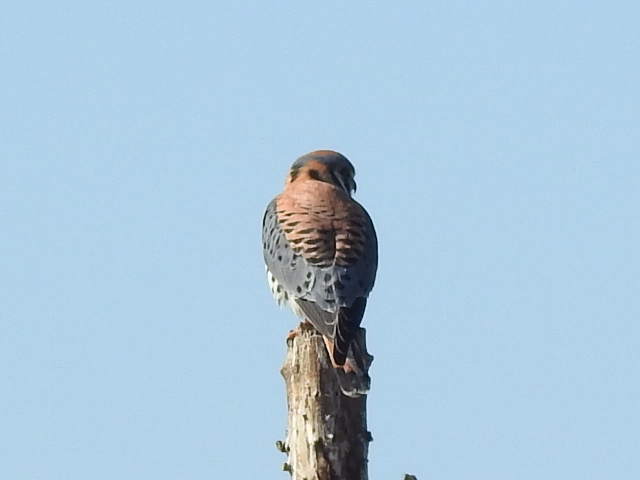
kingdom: Animalia
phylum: Chordata
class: Aves
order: Falconiformes
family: Falconidae
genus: Falco
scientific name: Falco sparverius
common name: American kestrel
